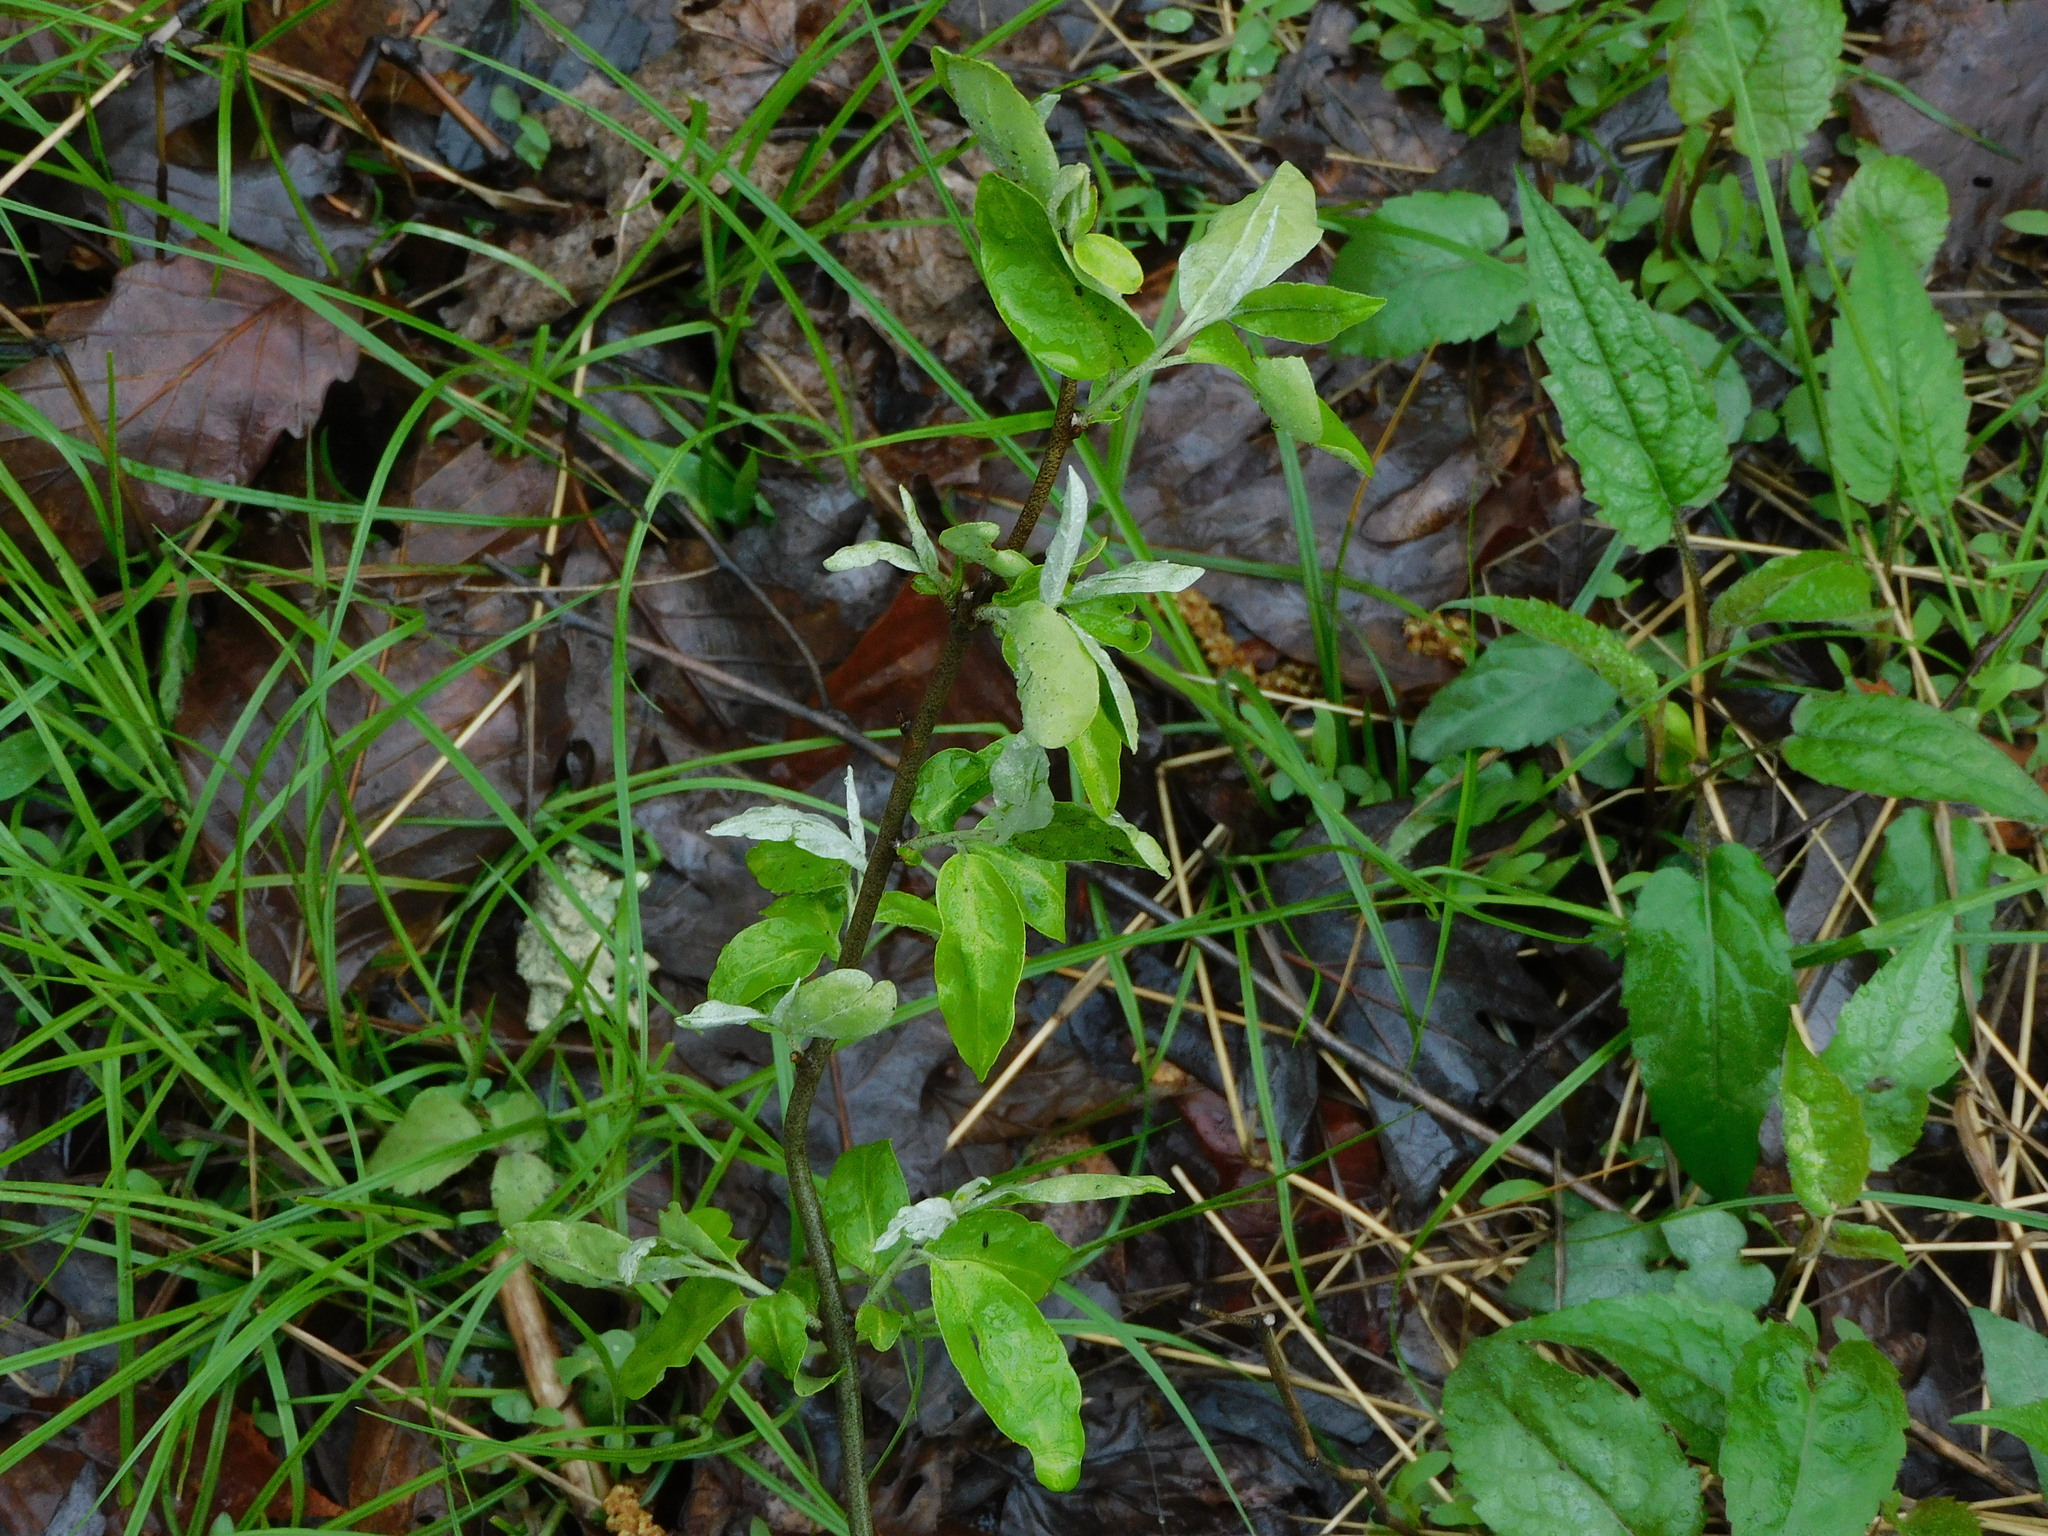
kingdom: Plantae
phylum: Tracheophyta
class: Magnoliopsida
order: Rosales
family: Elaeagnaceae
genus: Elaeagnus
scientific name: Elaeagnus umbellata
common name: Autumn olive
